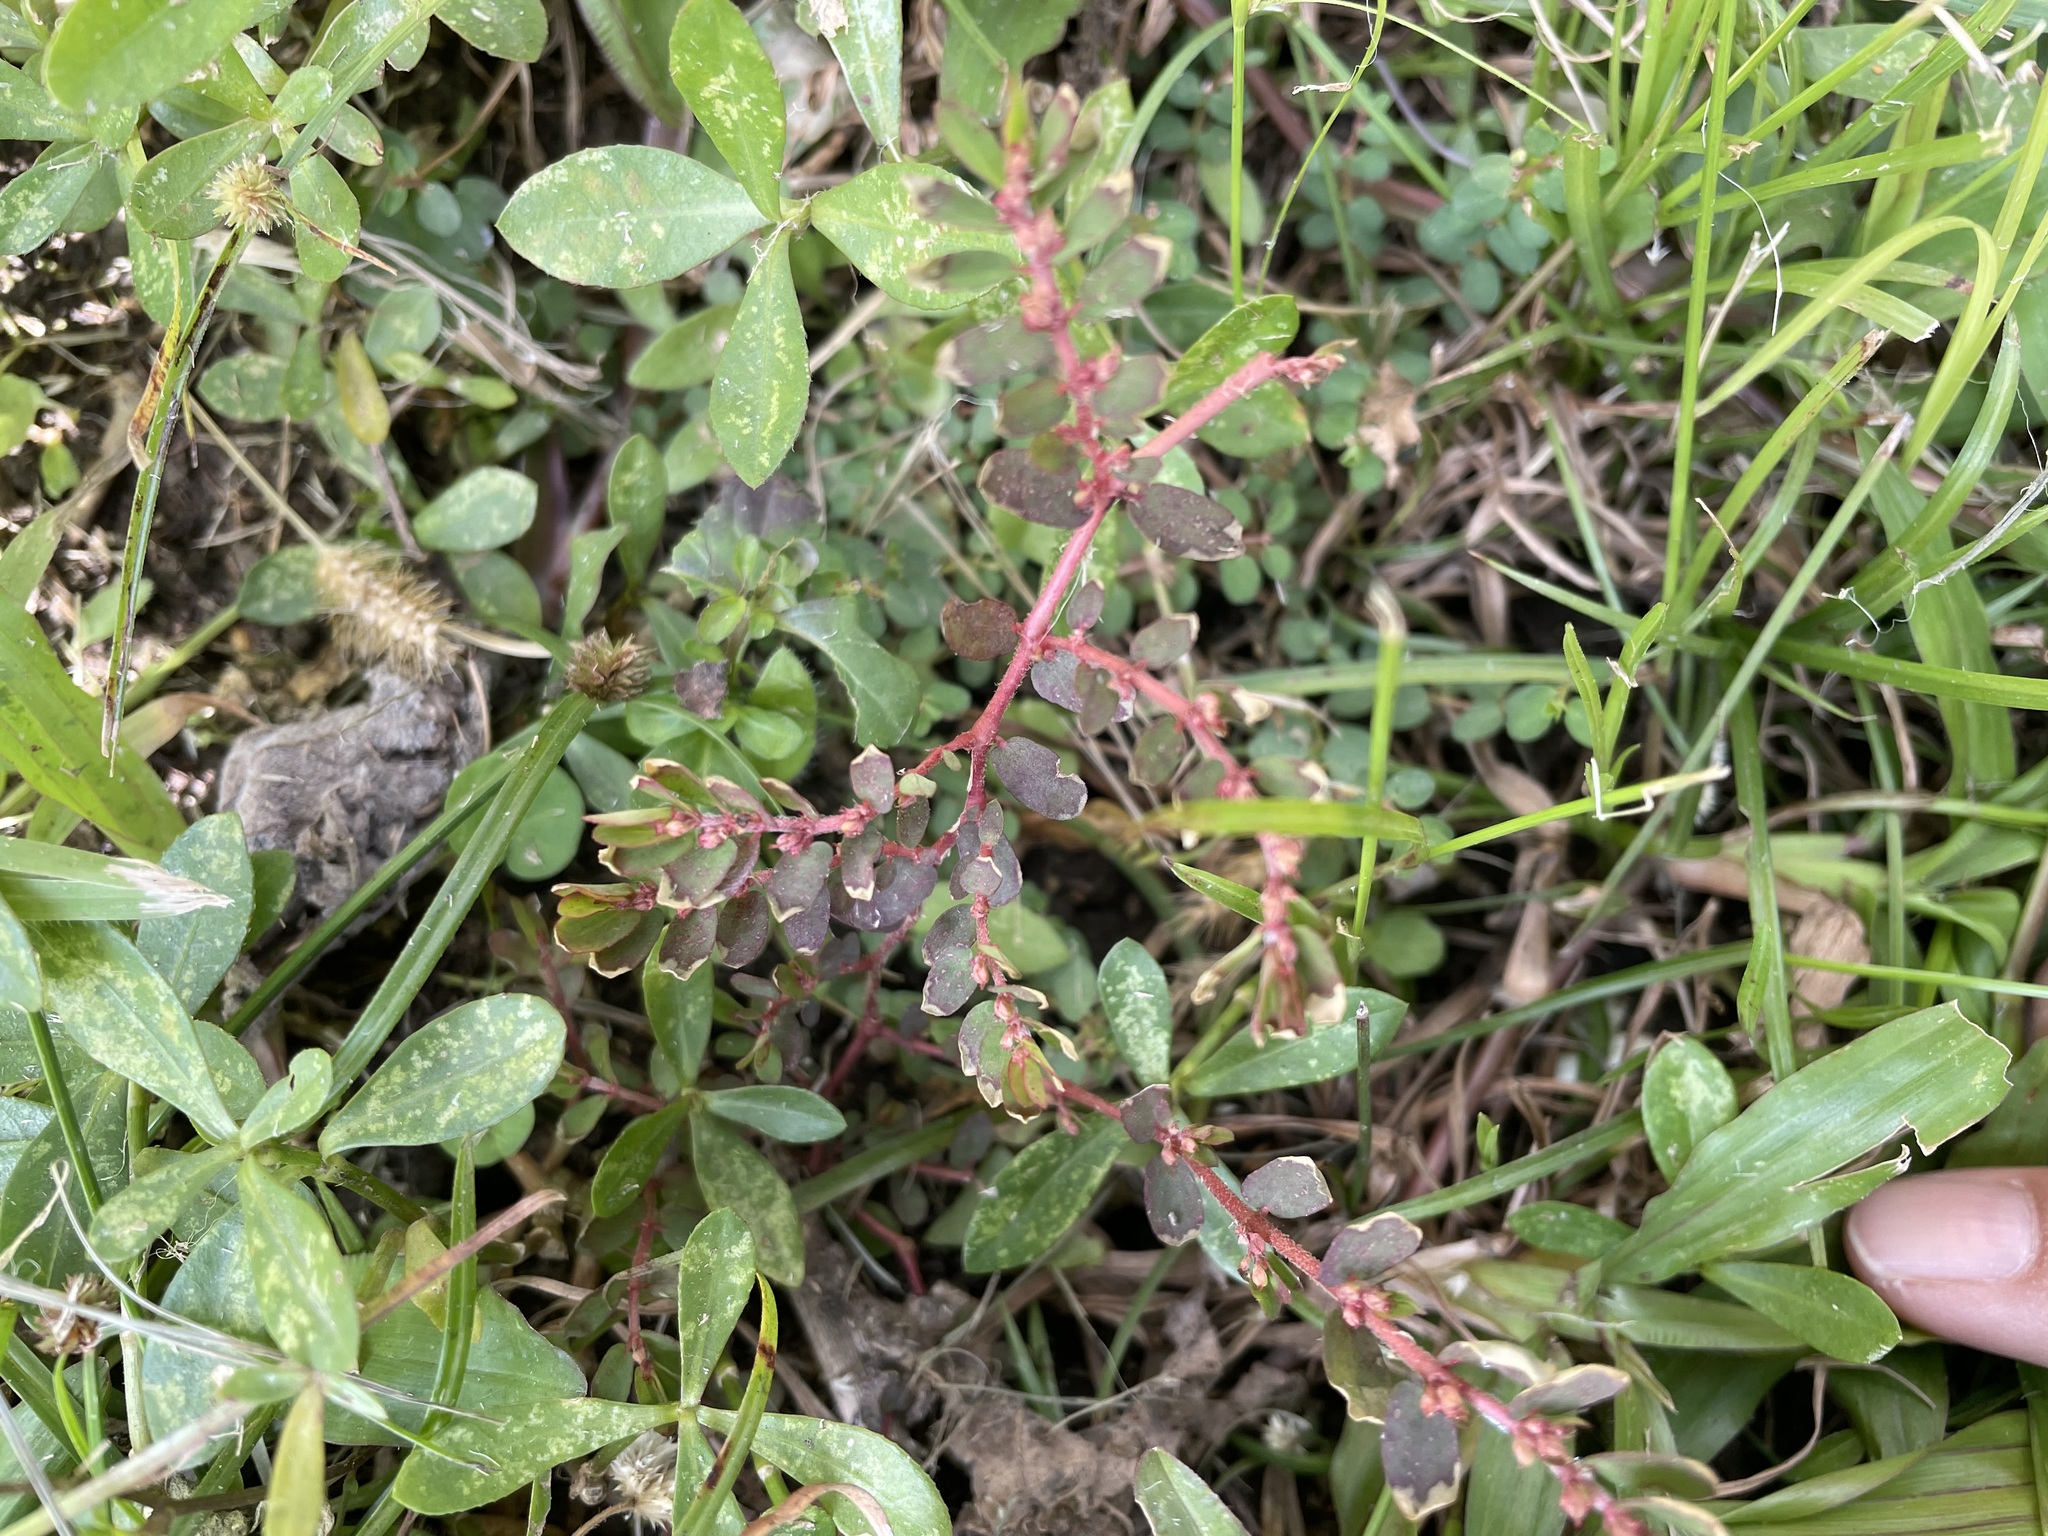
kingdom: Plantae
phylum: Tracheophyta
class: Magnoliopsida
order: Malpighiales
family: Euphorbiaceae
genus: Euphorbia
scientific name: Euphorbia thymifolia
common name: Gulf sandmat
